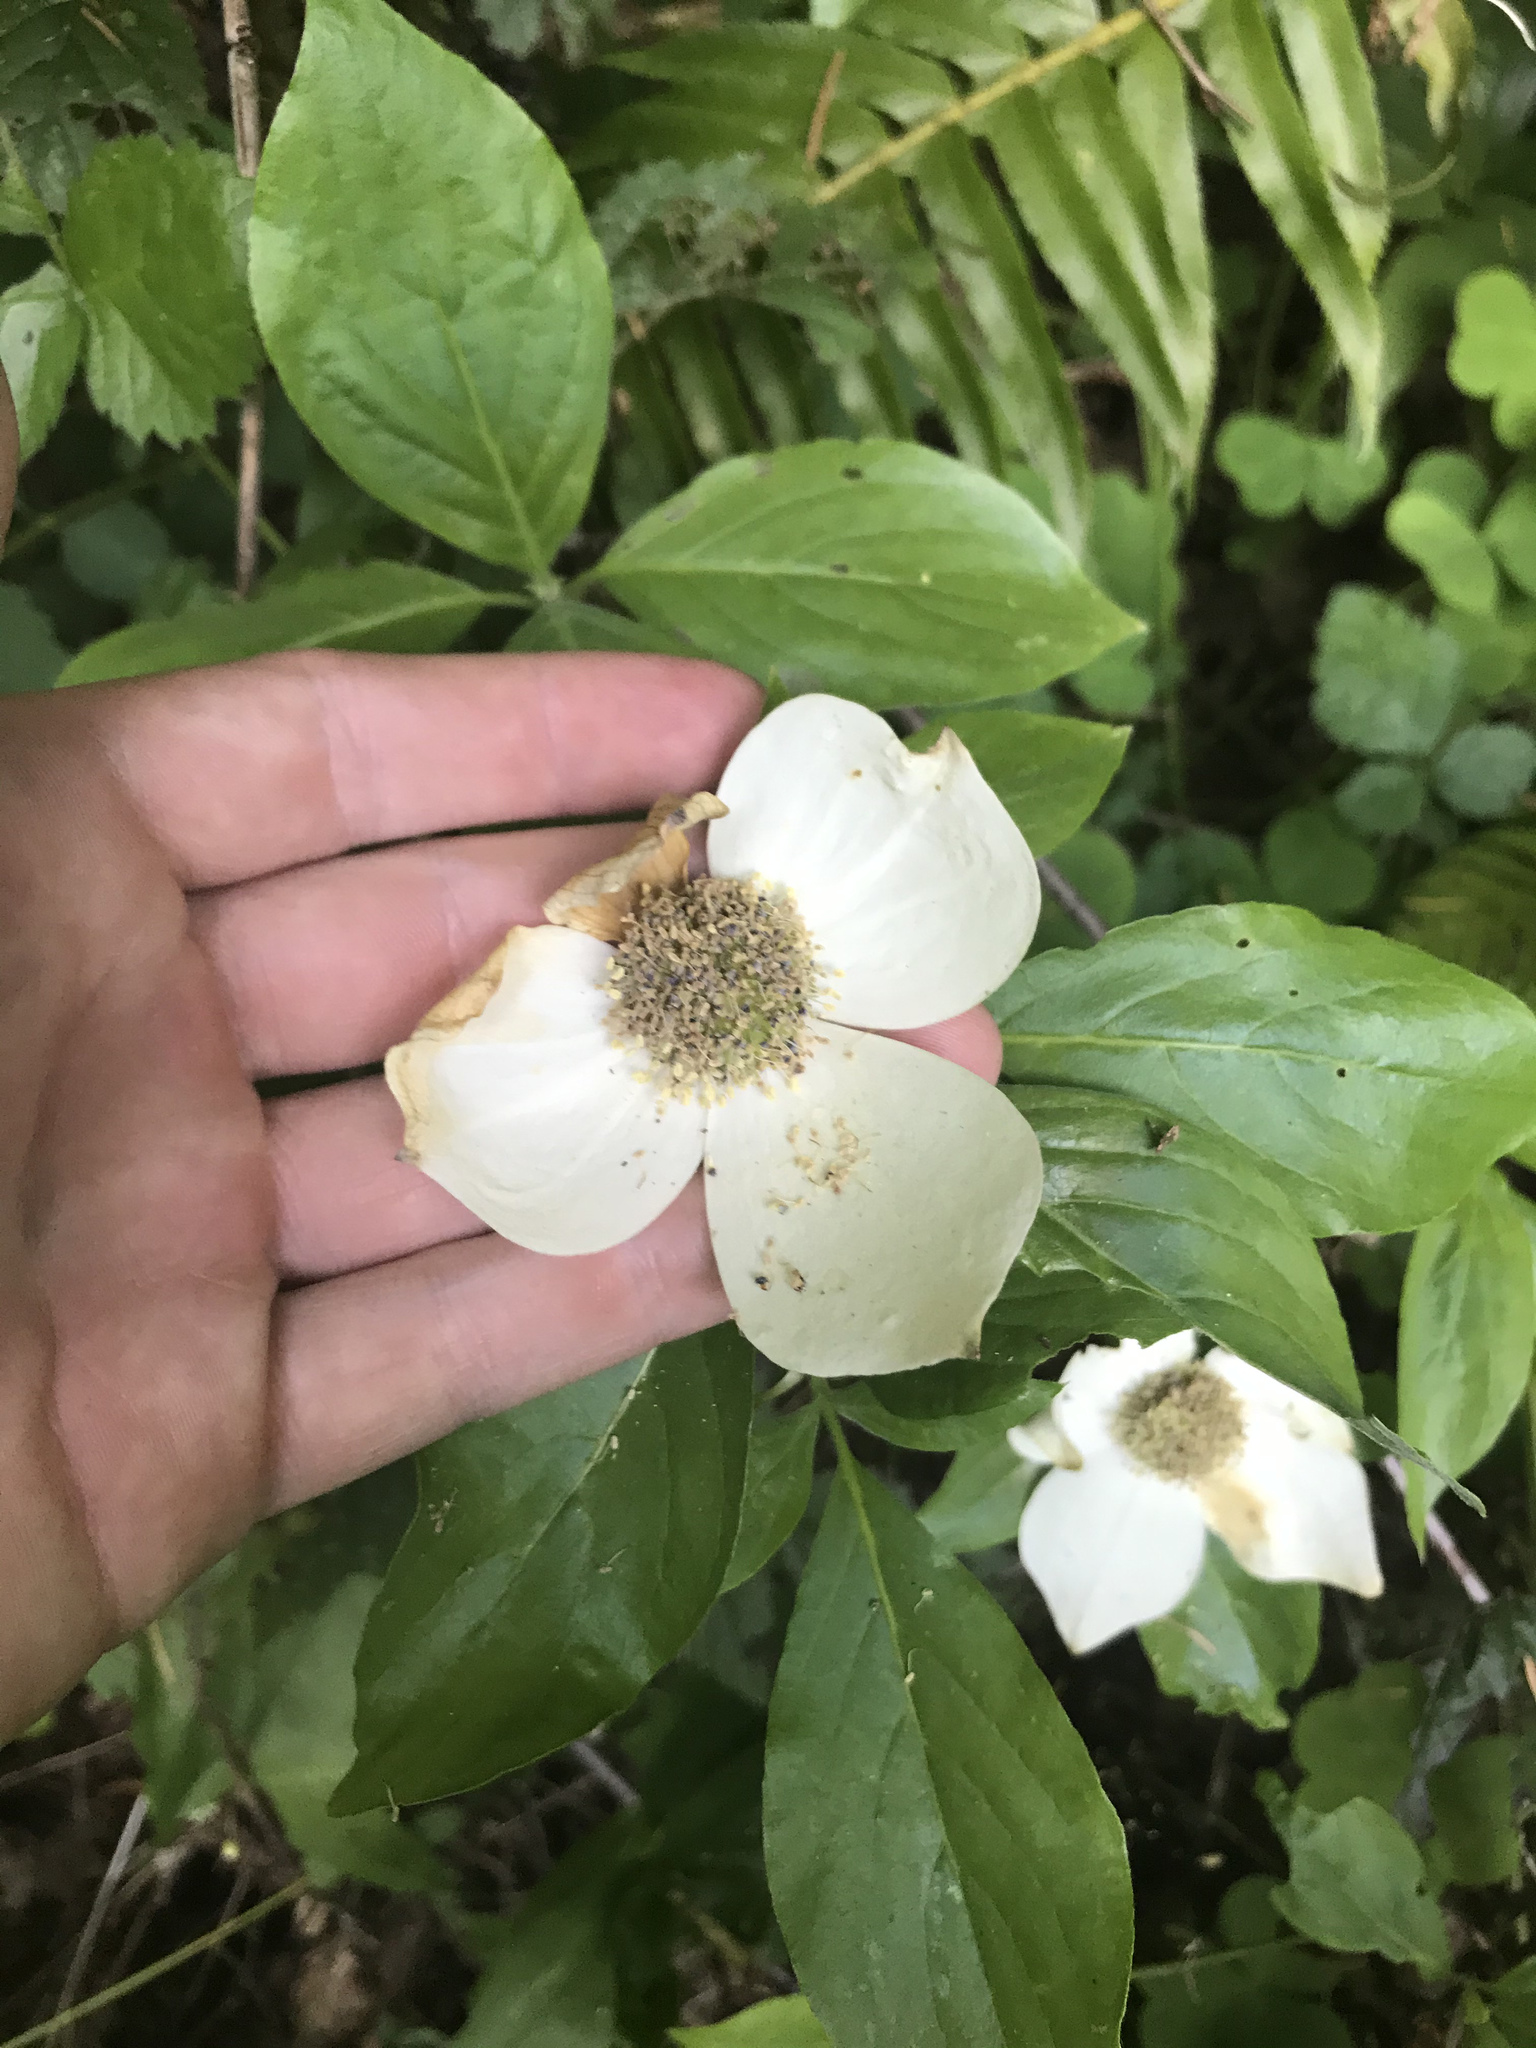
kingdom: Plantae
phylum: Tracheophyta
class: Magnoliopsida
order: Cornales
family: Cornaceae
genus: Cornus
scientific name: Cornus nuttallii
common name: Pacific dogwood
